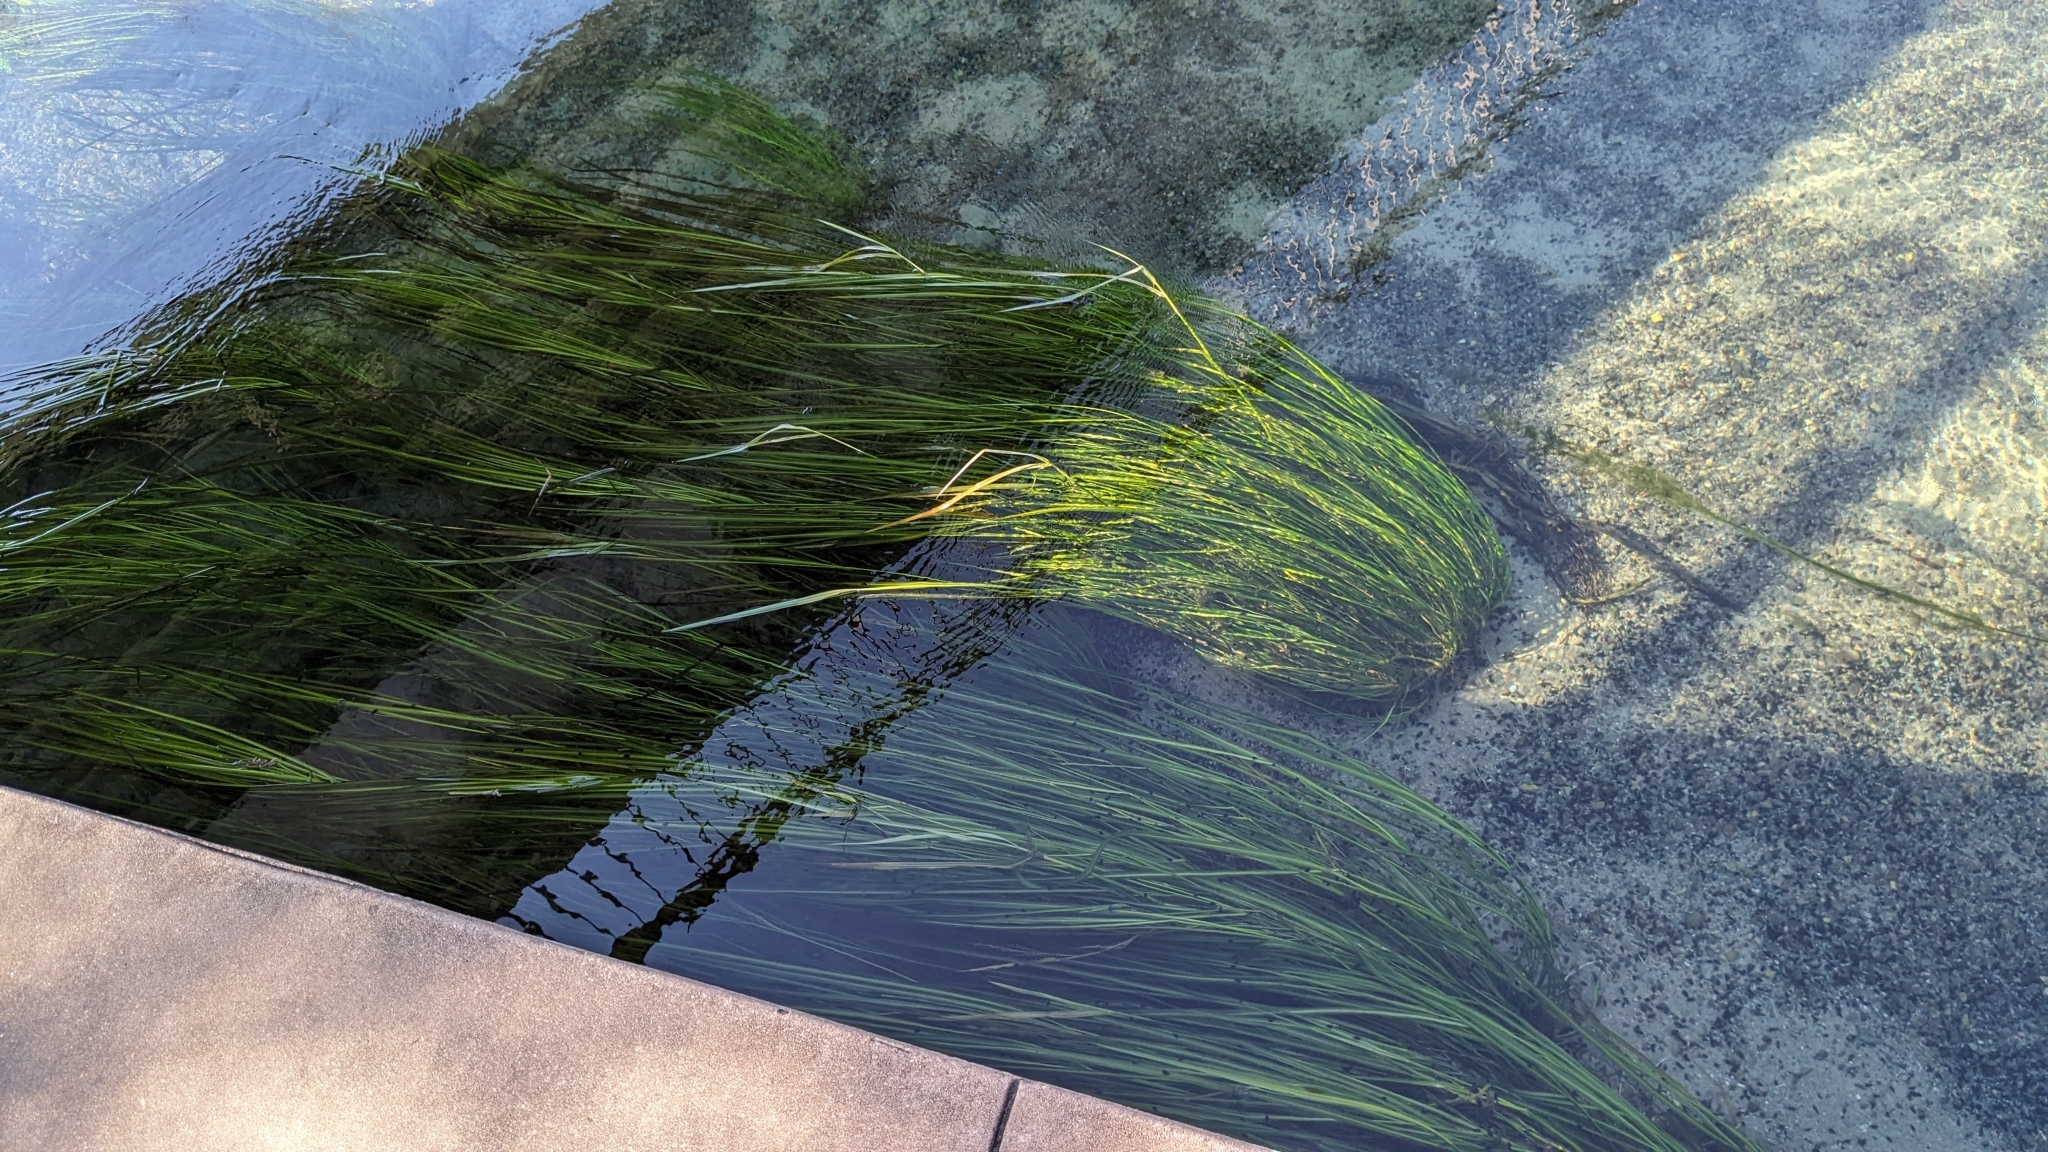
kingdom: Plantae
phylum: Tracheophyta
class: Liliopsida
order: Poales
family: Poaceae
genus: Zizania
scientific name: Zizania texana
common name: Texas wild rice
